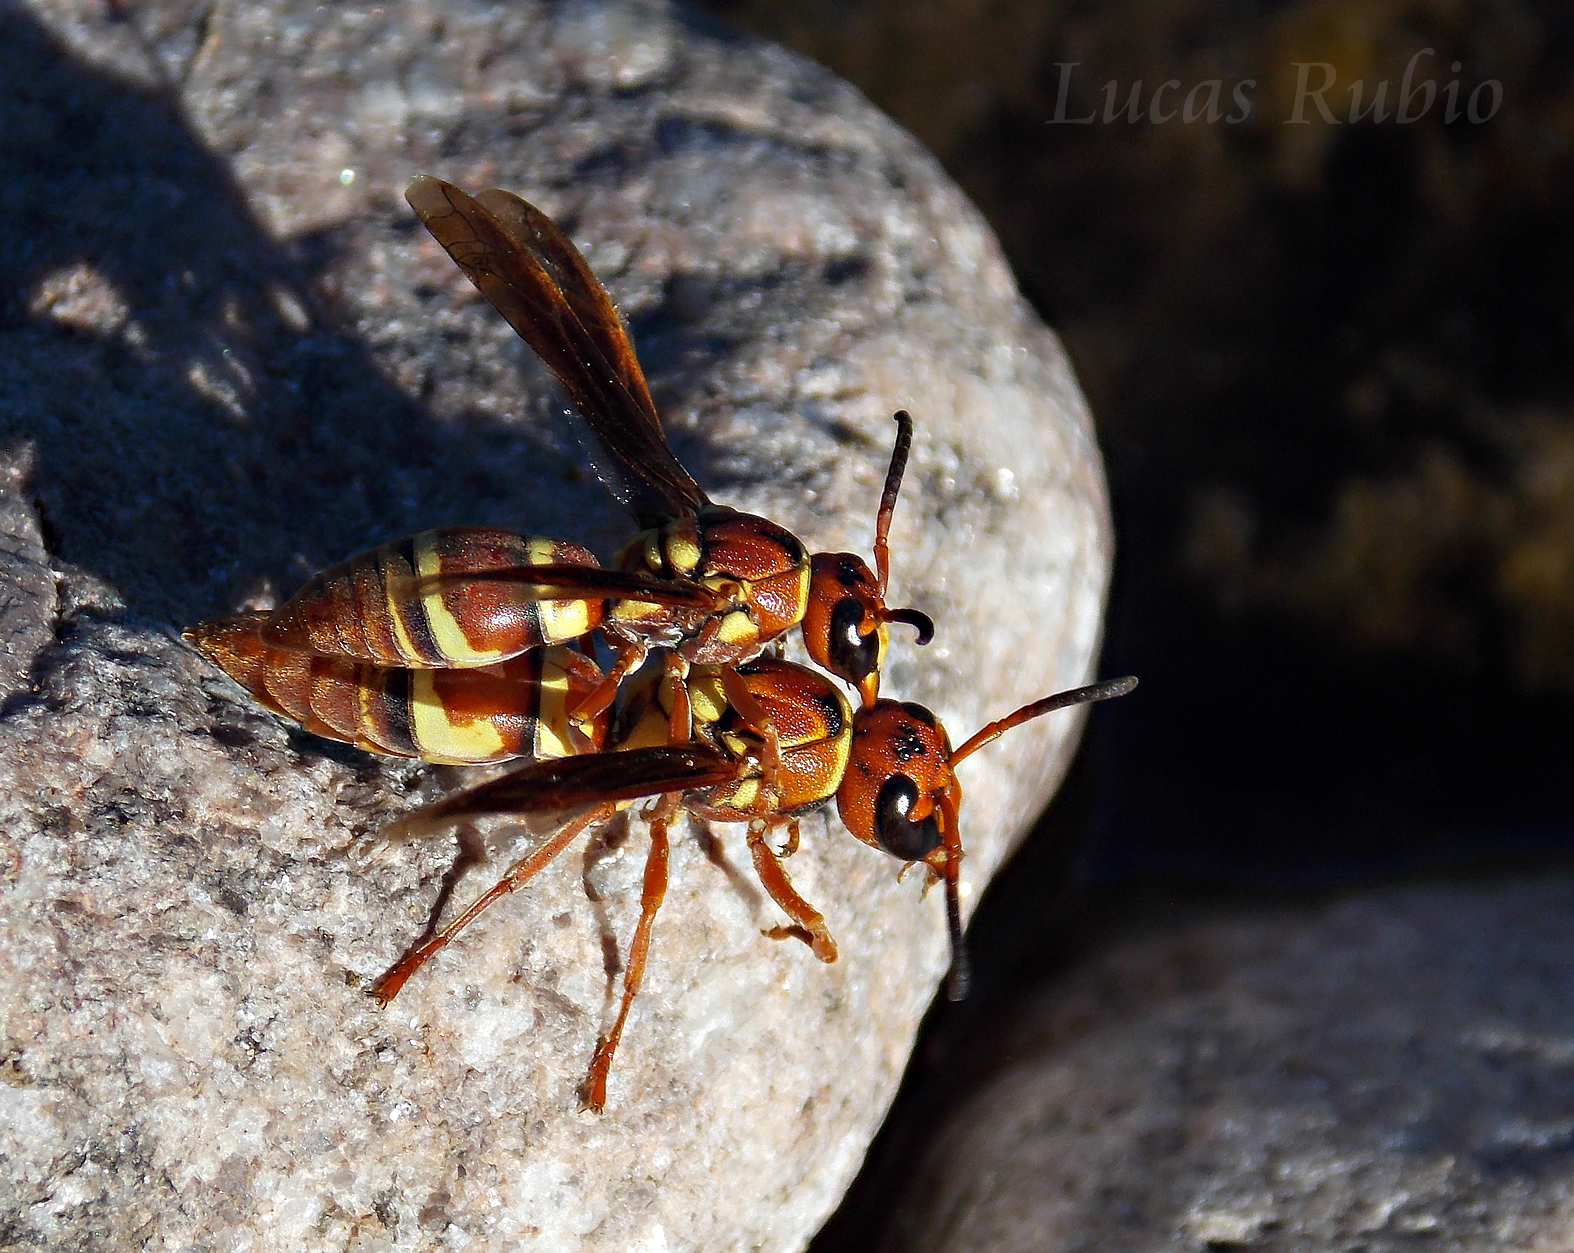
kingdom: Animalia
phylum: Arthropoda
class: Insecta
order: Hymenoptera
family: Eumenidae
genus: Monobia
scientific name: Monobia caridei
